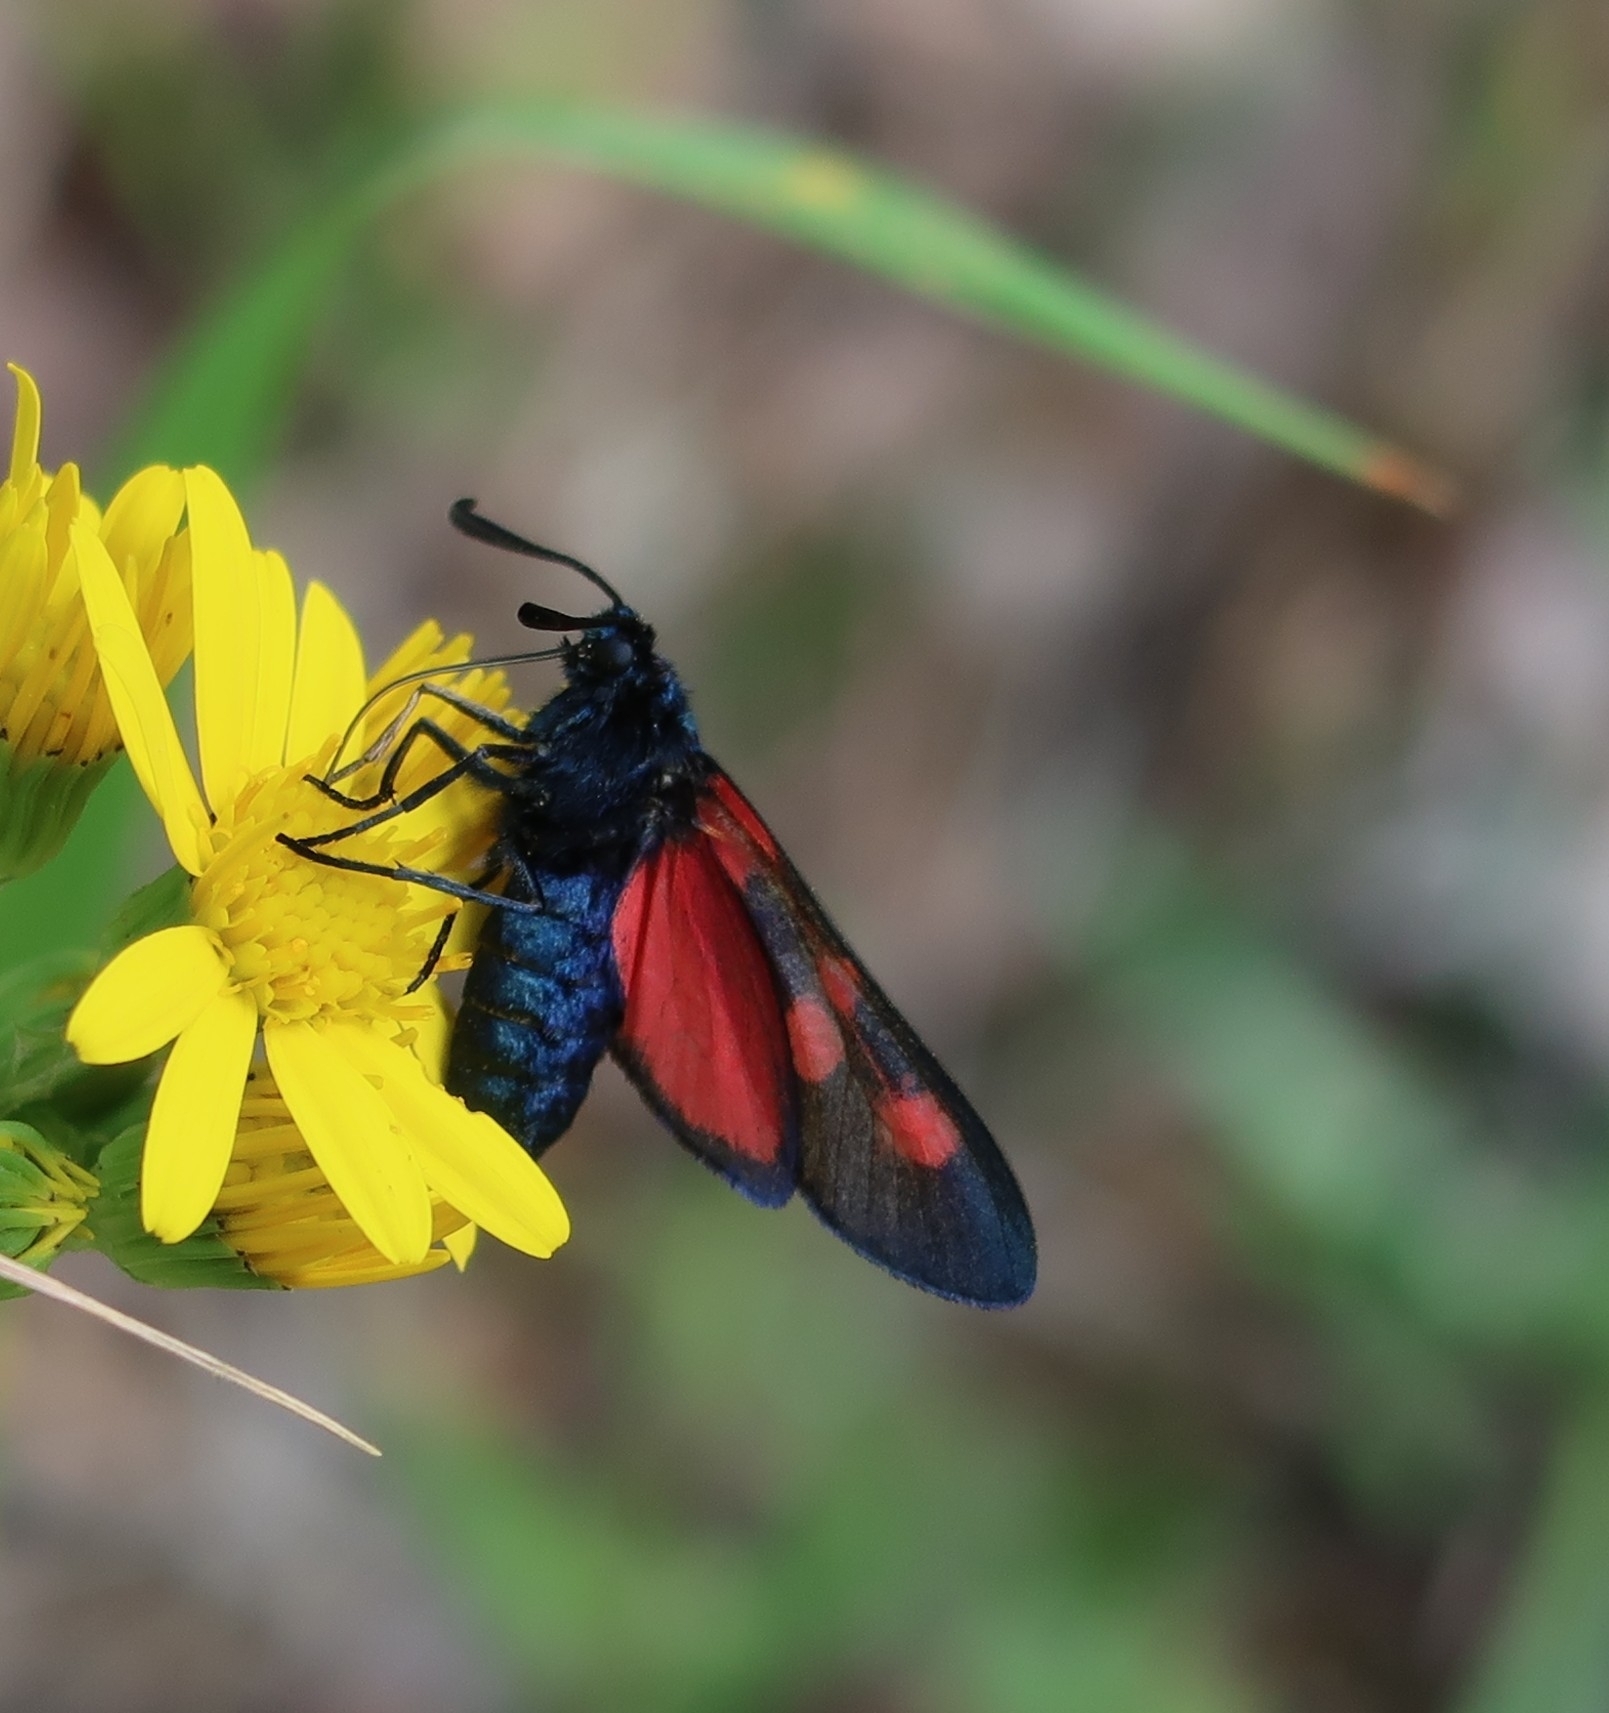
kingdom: Animalia
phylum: Arthropoda
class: Insecta
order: Lepidoptera
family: Zygaenidae
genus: Zygaena
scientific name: Zygaena lonicerae
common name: Narrow-bordered five-spot burnet
